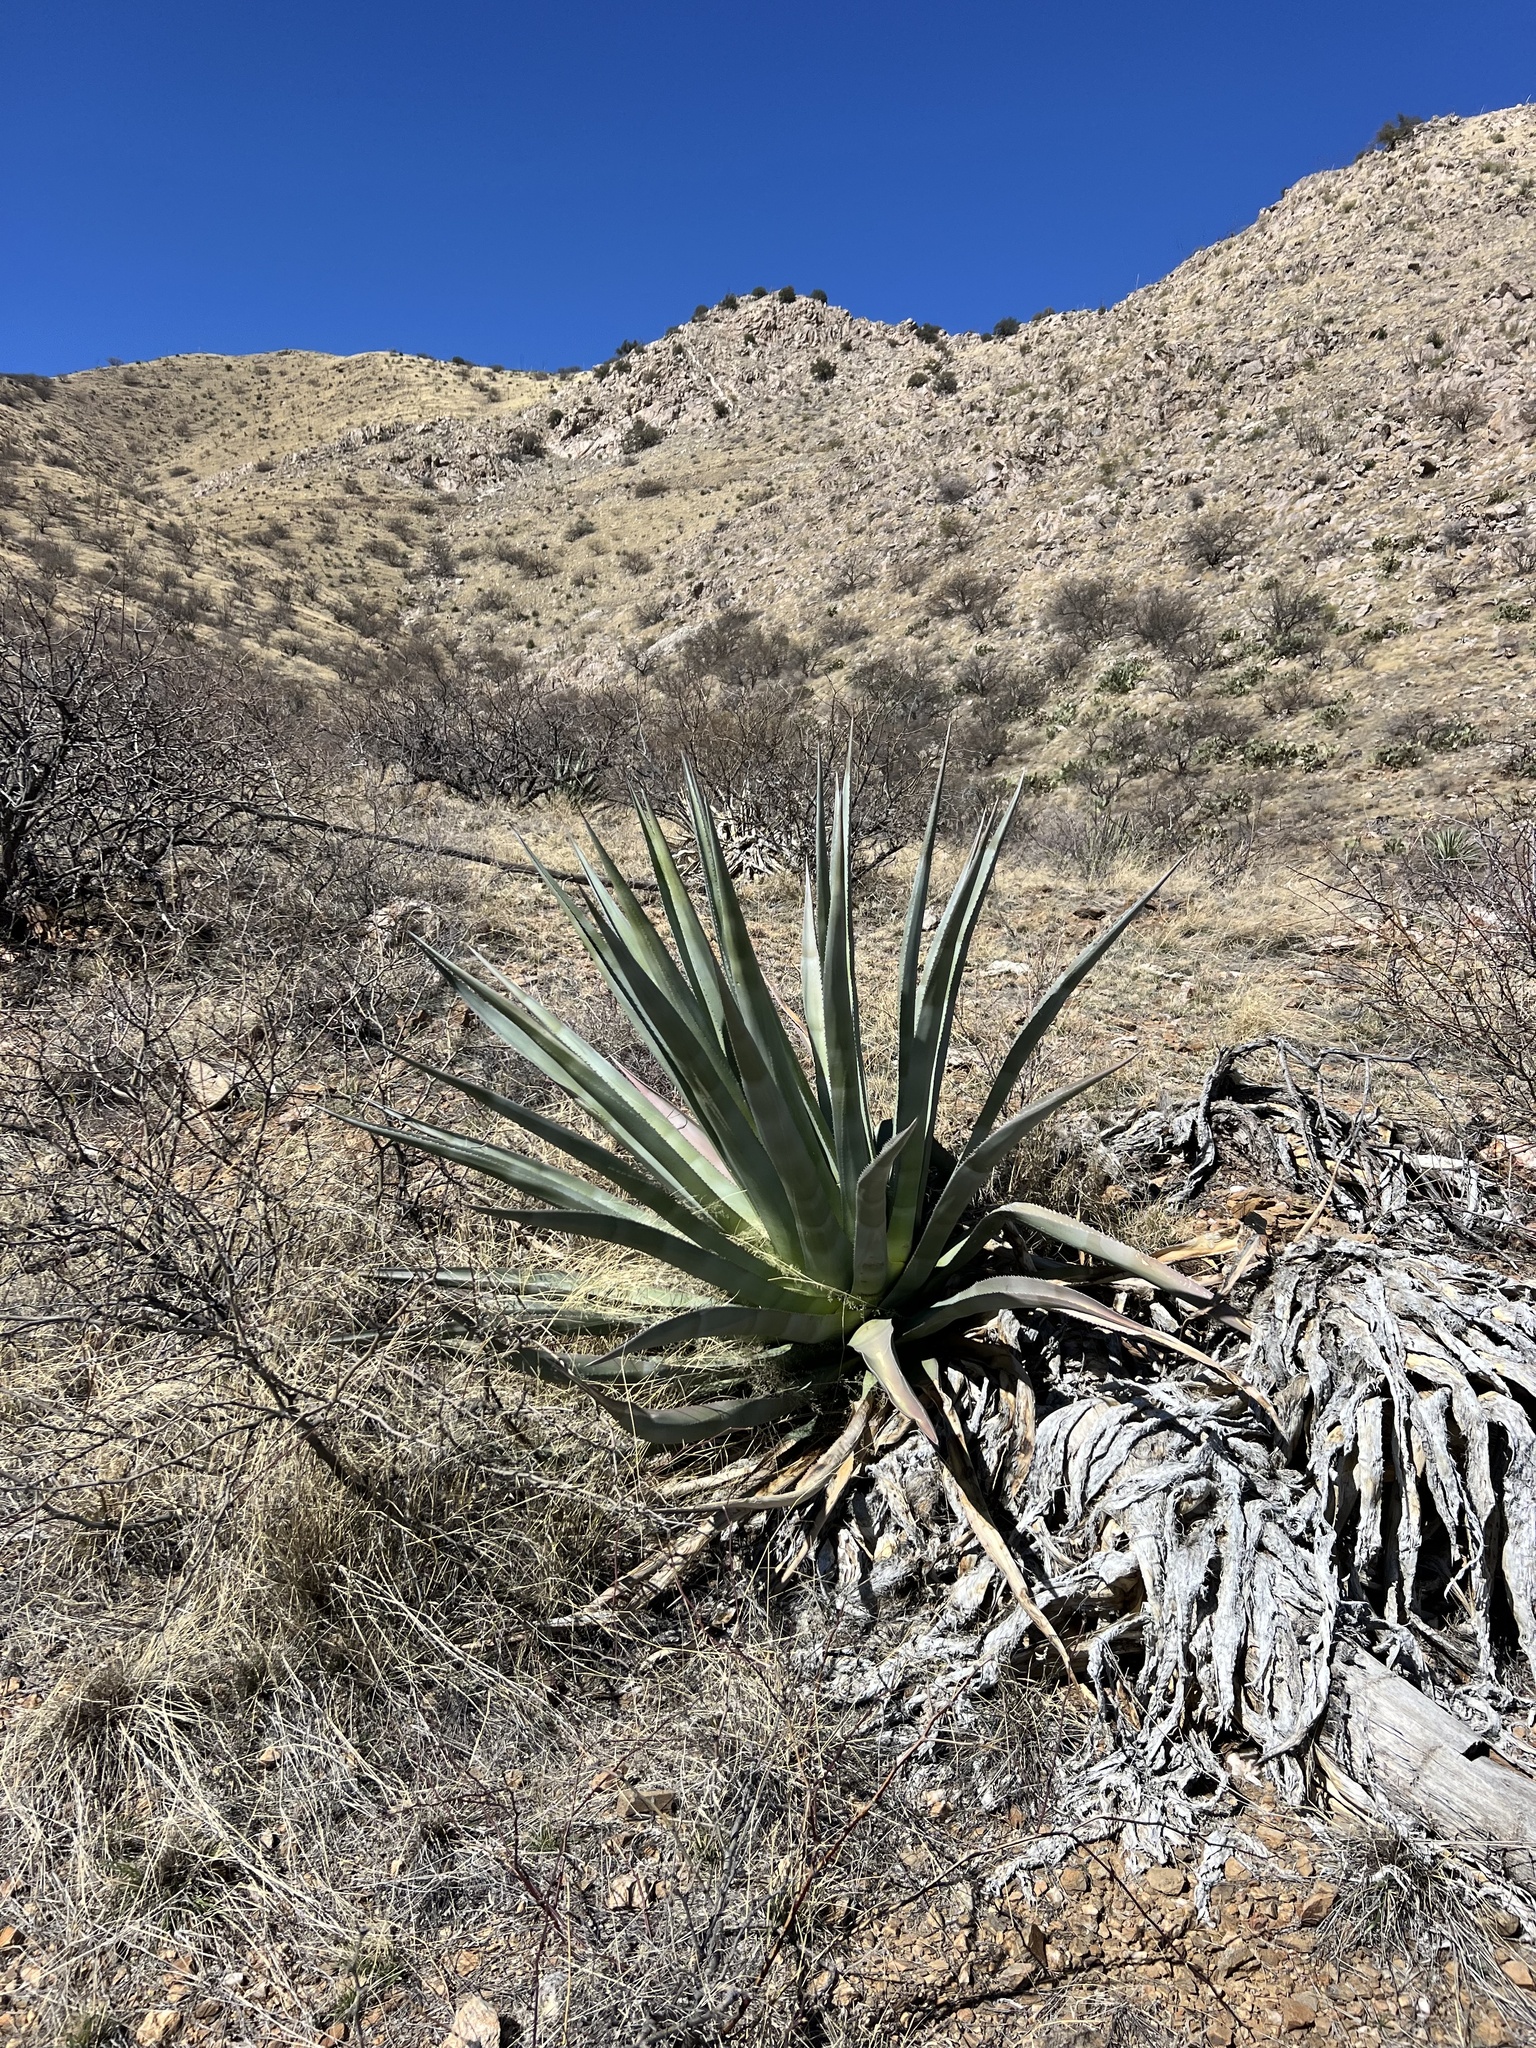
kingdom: Plantae
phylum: Tracheophyta
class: Liliopsida
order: Asparagales
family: Asparagaceae
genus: Agave
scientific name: Agave palmeri
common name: Palmer agave
